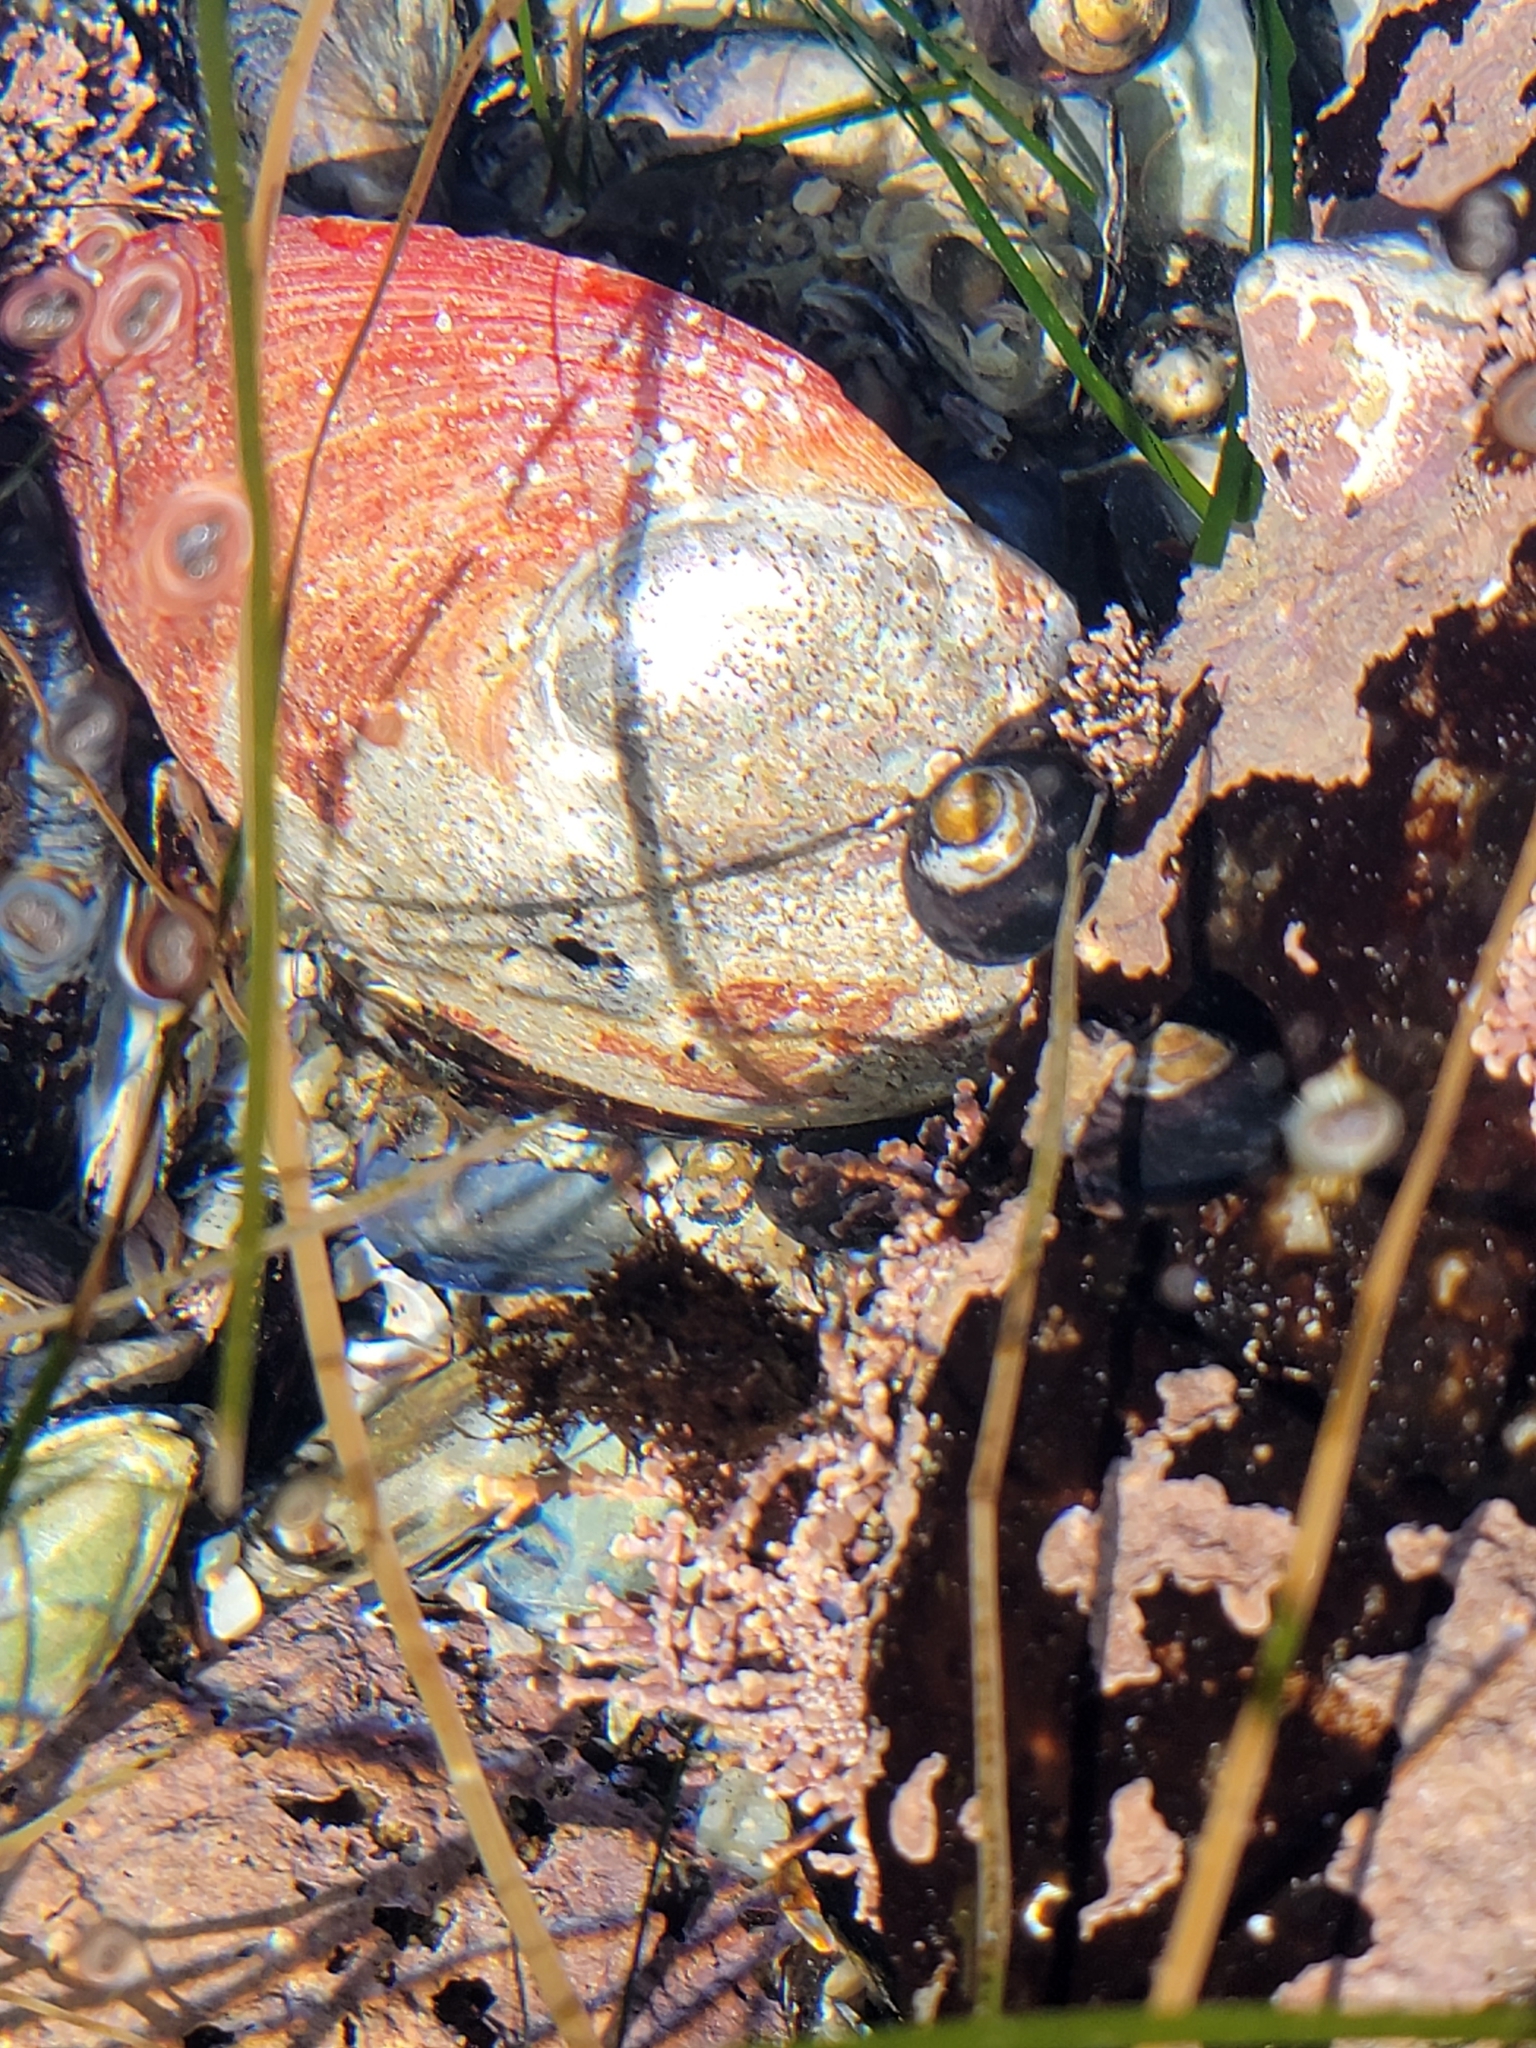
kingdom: Animalia
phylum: Mollusca
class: Gastropoda
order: Lepetellida
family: Haliotidae
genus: Haliotis
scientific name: Haliotis rufescens
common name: Red abalone
